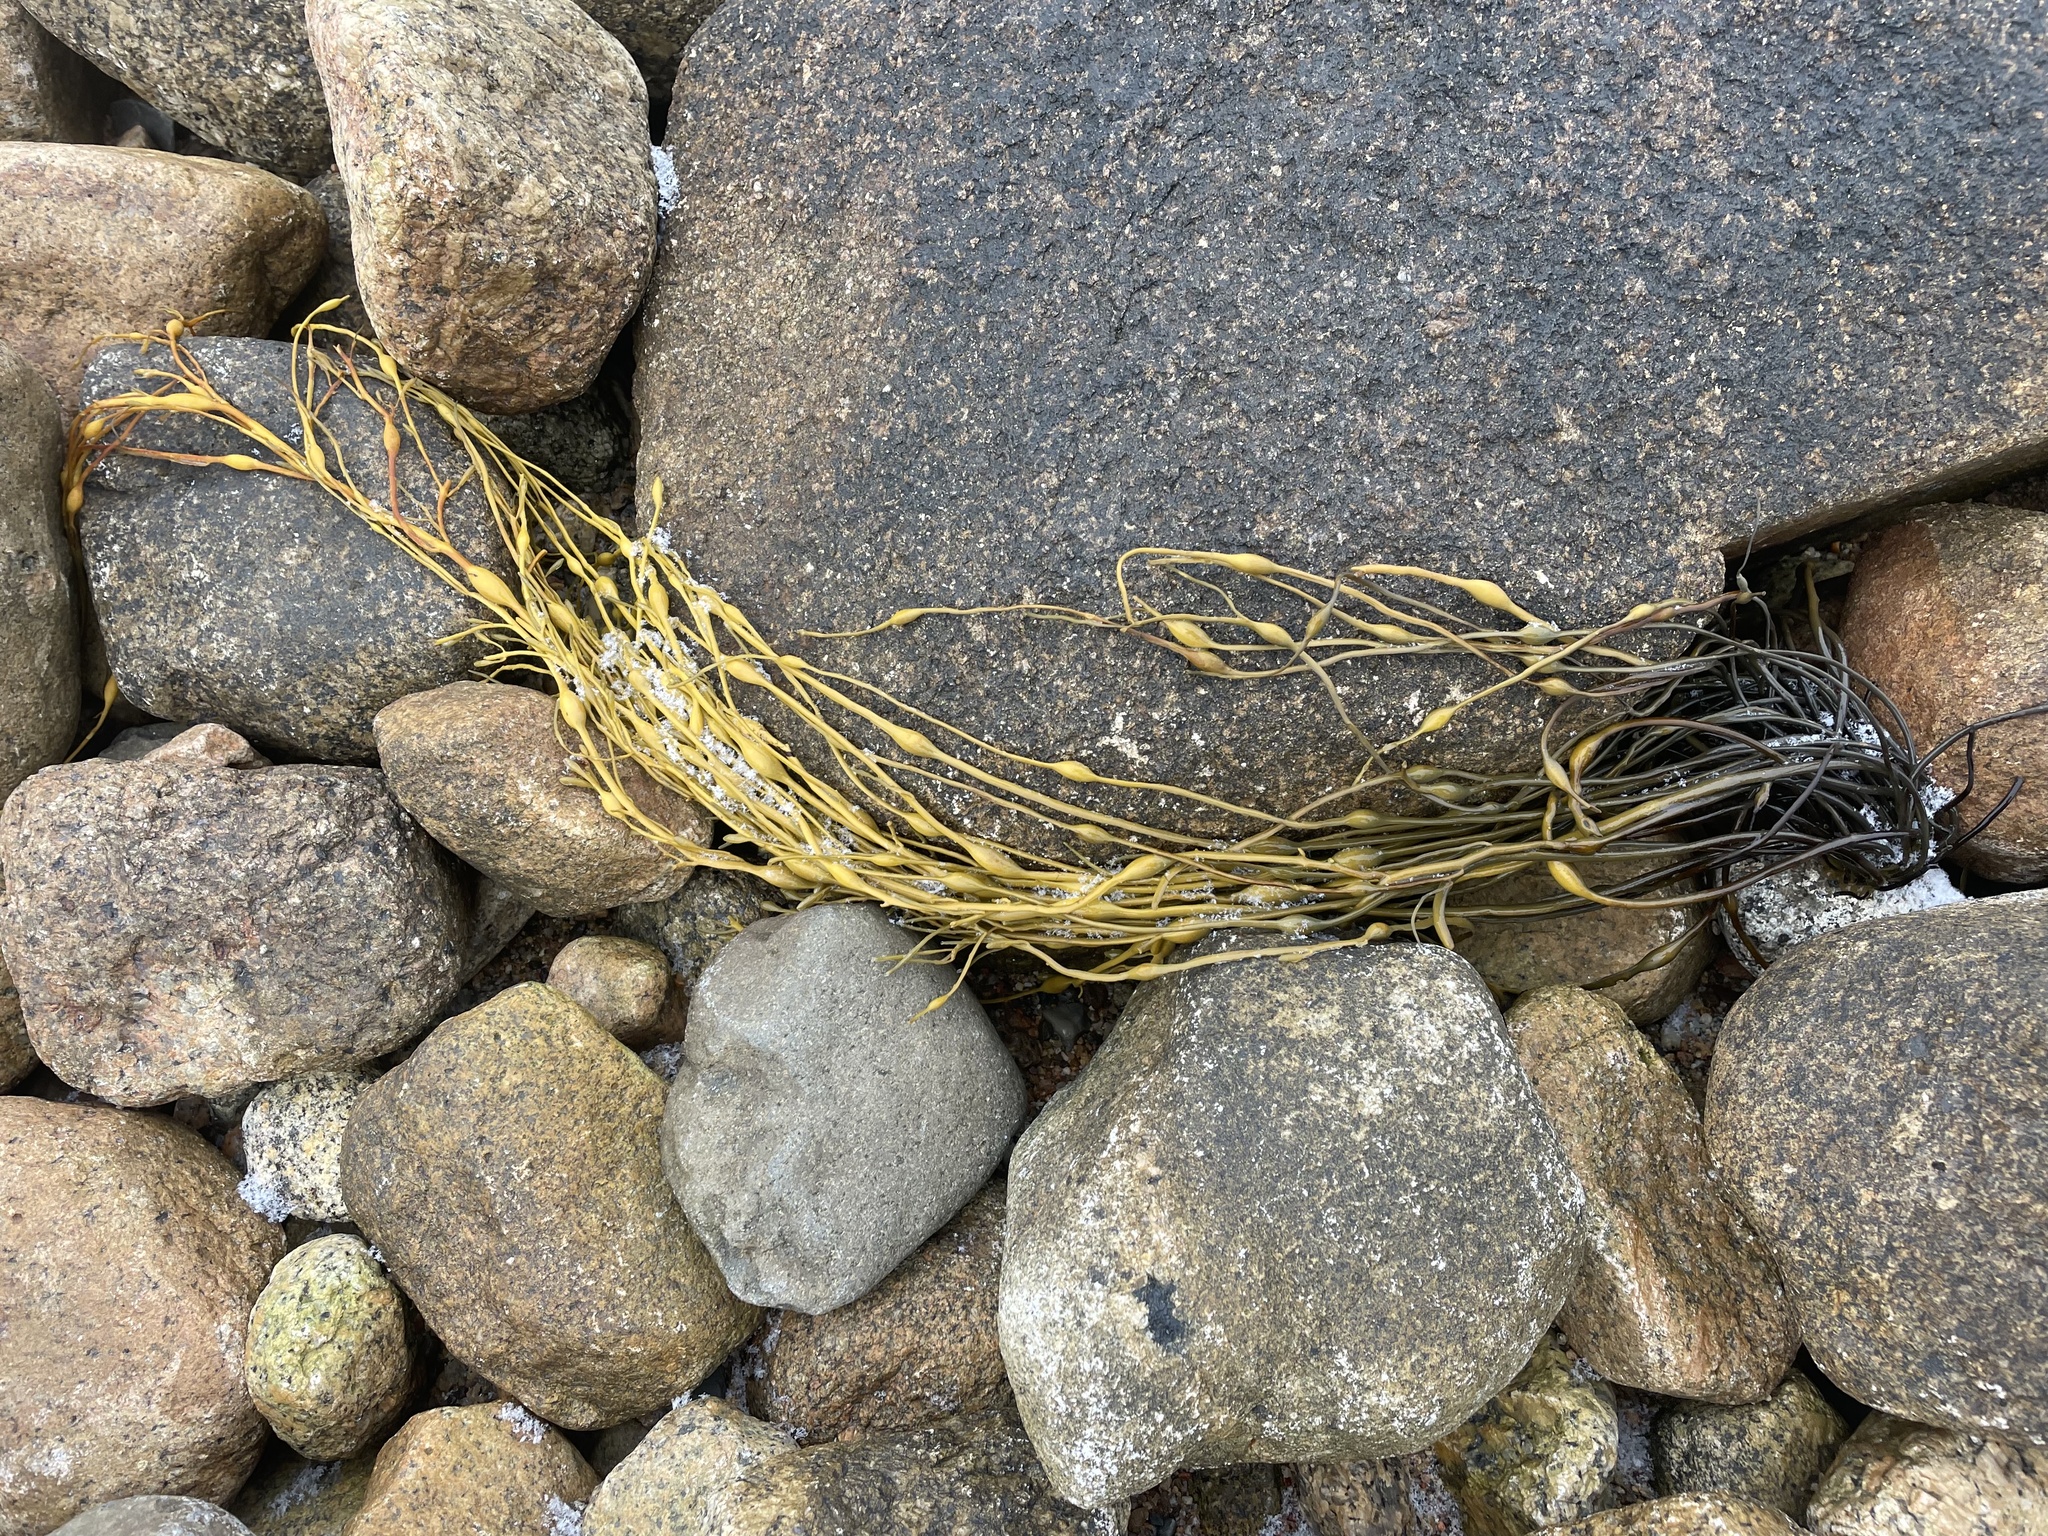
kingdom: Chromista
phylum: Ochrophyta
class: Phaeophyceae
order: Fucales
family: Fucaceae
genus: Ascophyllum
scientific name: Ascophyllum nodosum
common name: Knotted wrack
